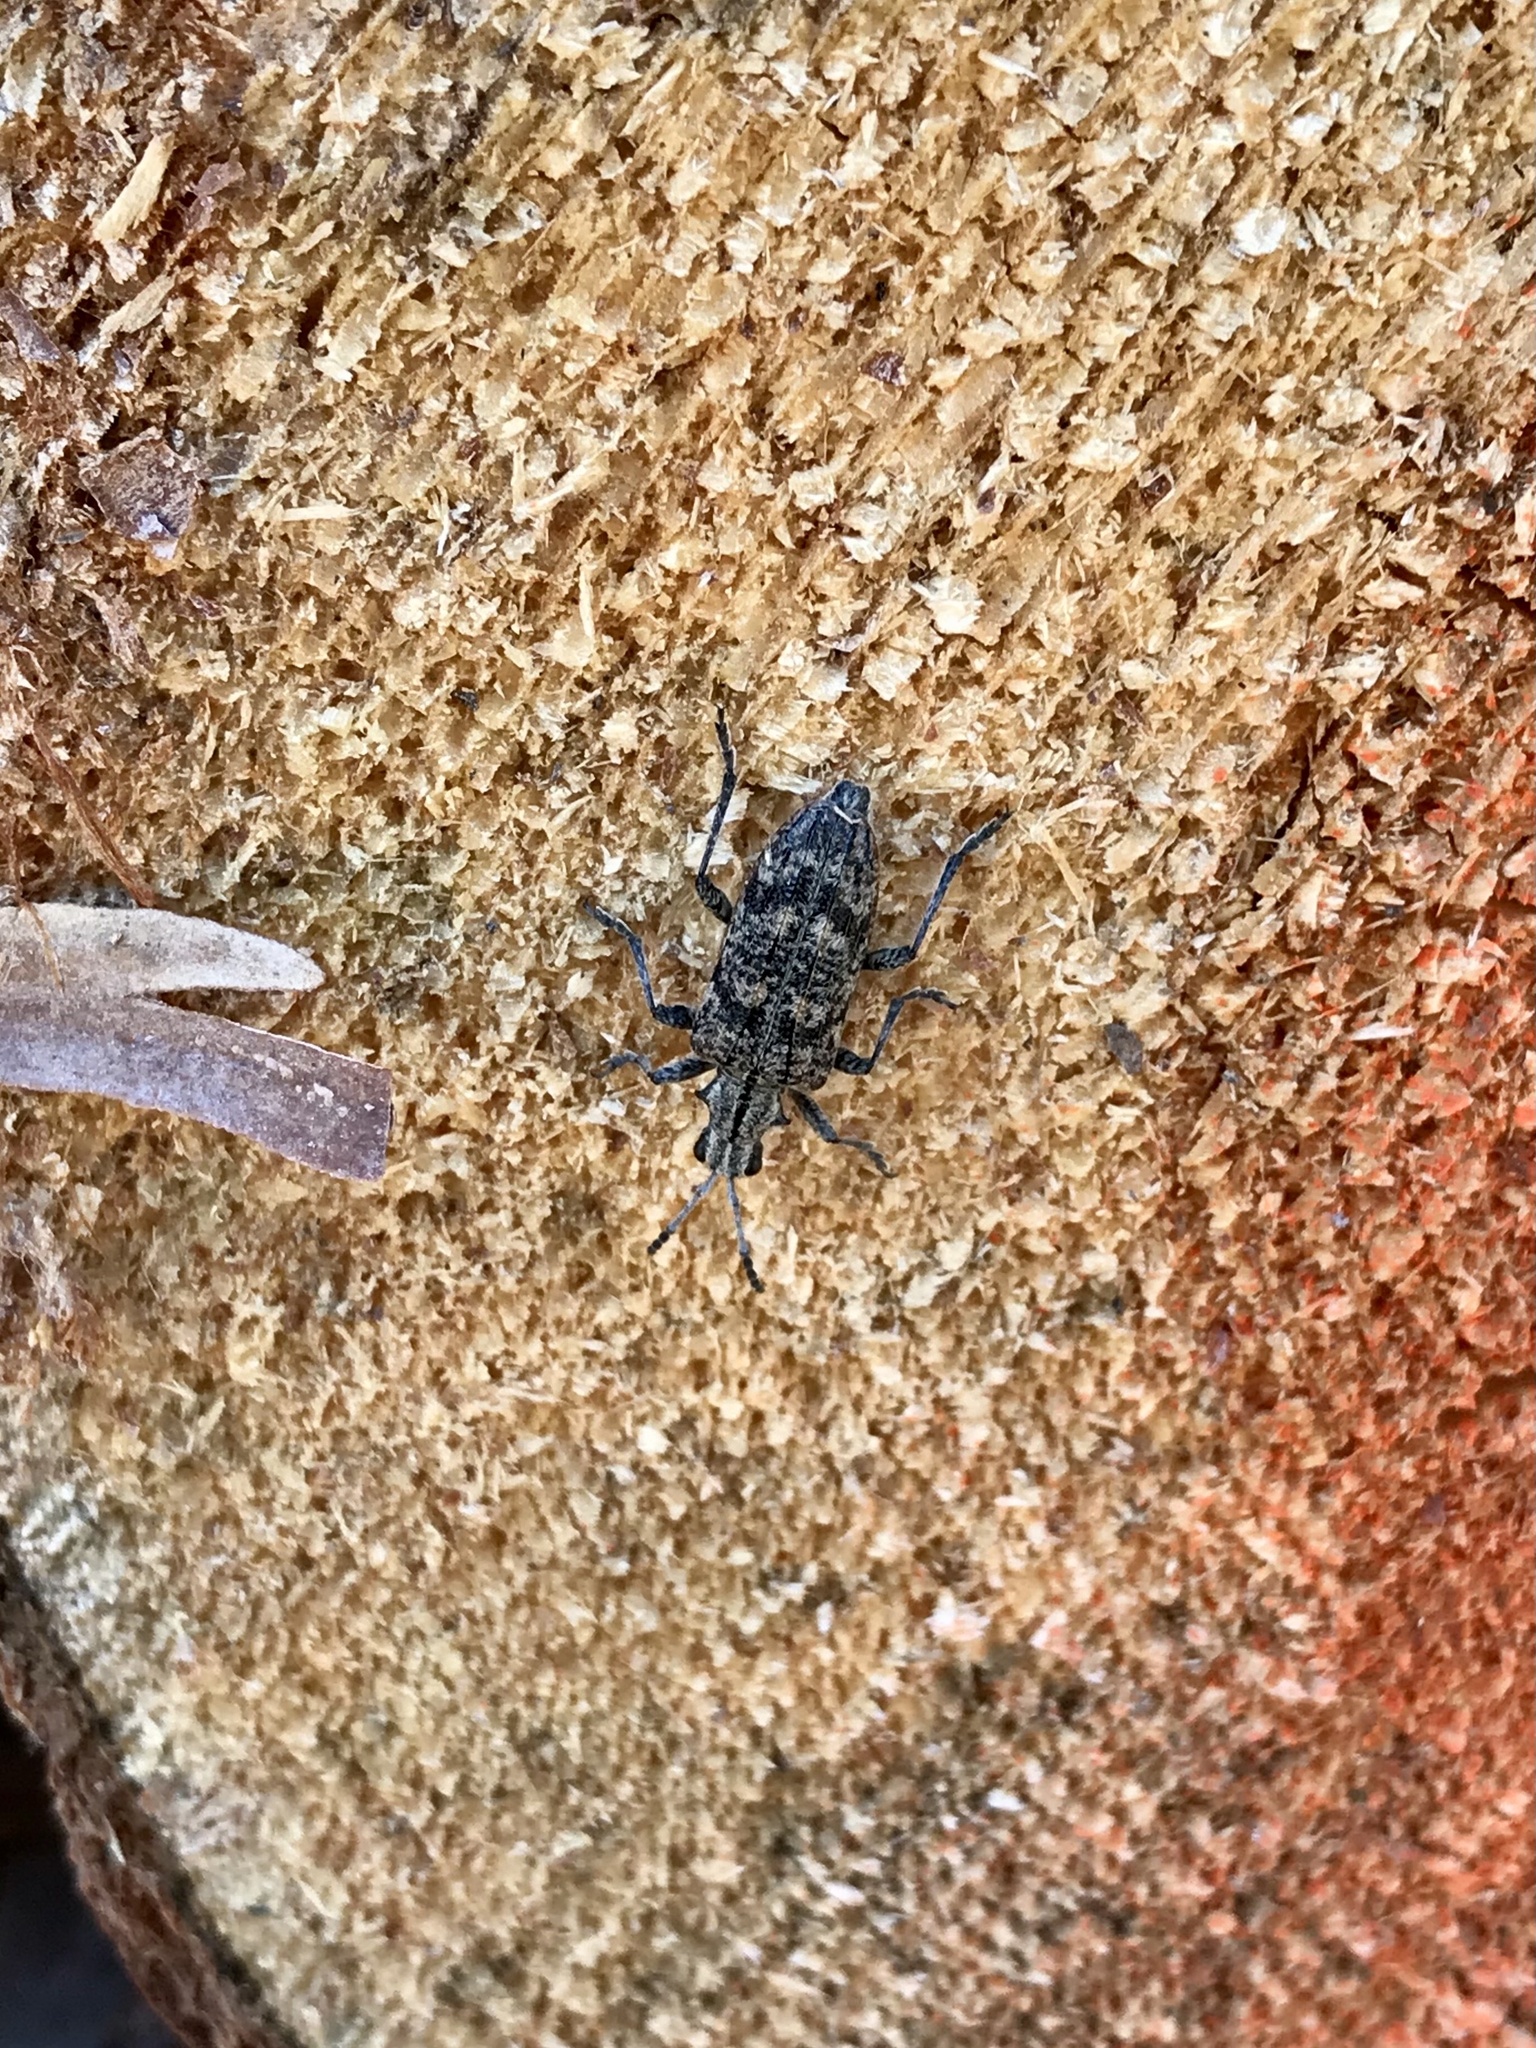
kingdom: Animalia
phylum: Arthropoda
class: Insecta
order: Coleoptera
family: Cerambycidae
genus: Rhagium
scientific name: Rhagium inquisitor
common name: Ribbed pine borer
